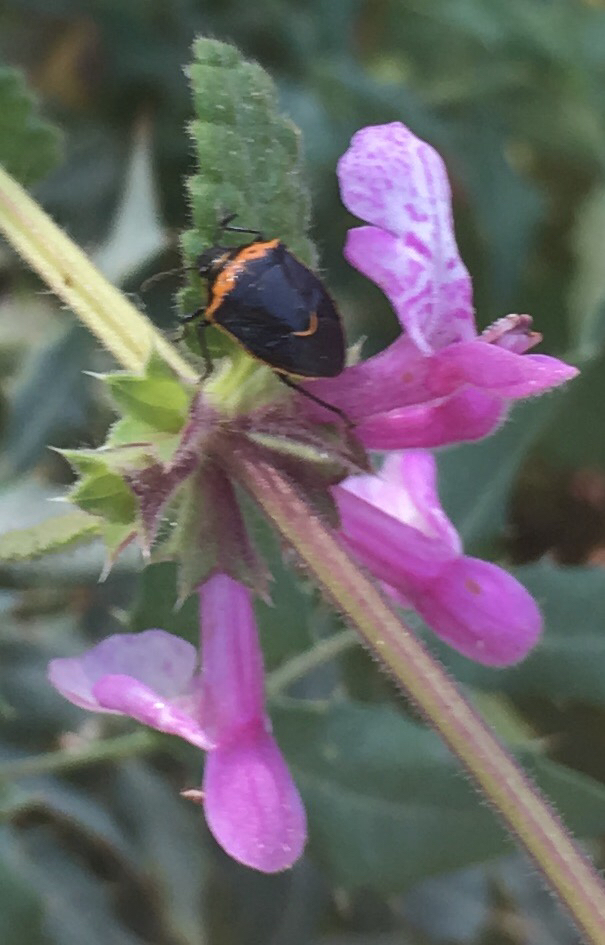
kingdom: Animalia
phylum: Arthropoda
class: Insecta
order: Hemiptera
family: Pentatomidae
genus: Cosmopepla
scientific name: Cosmopepla conspicillaris
